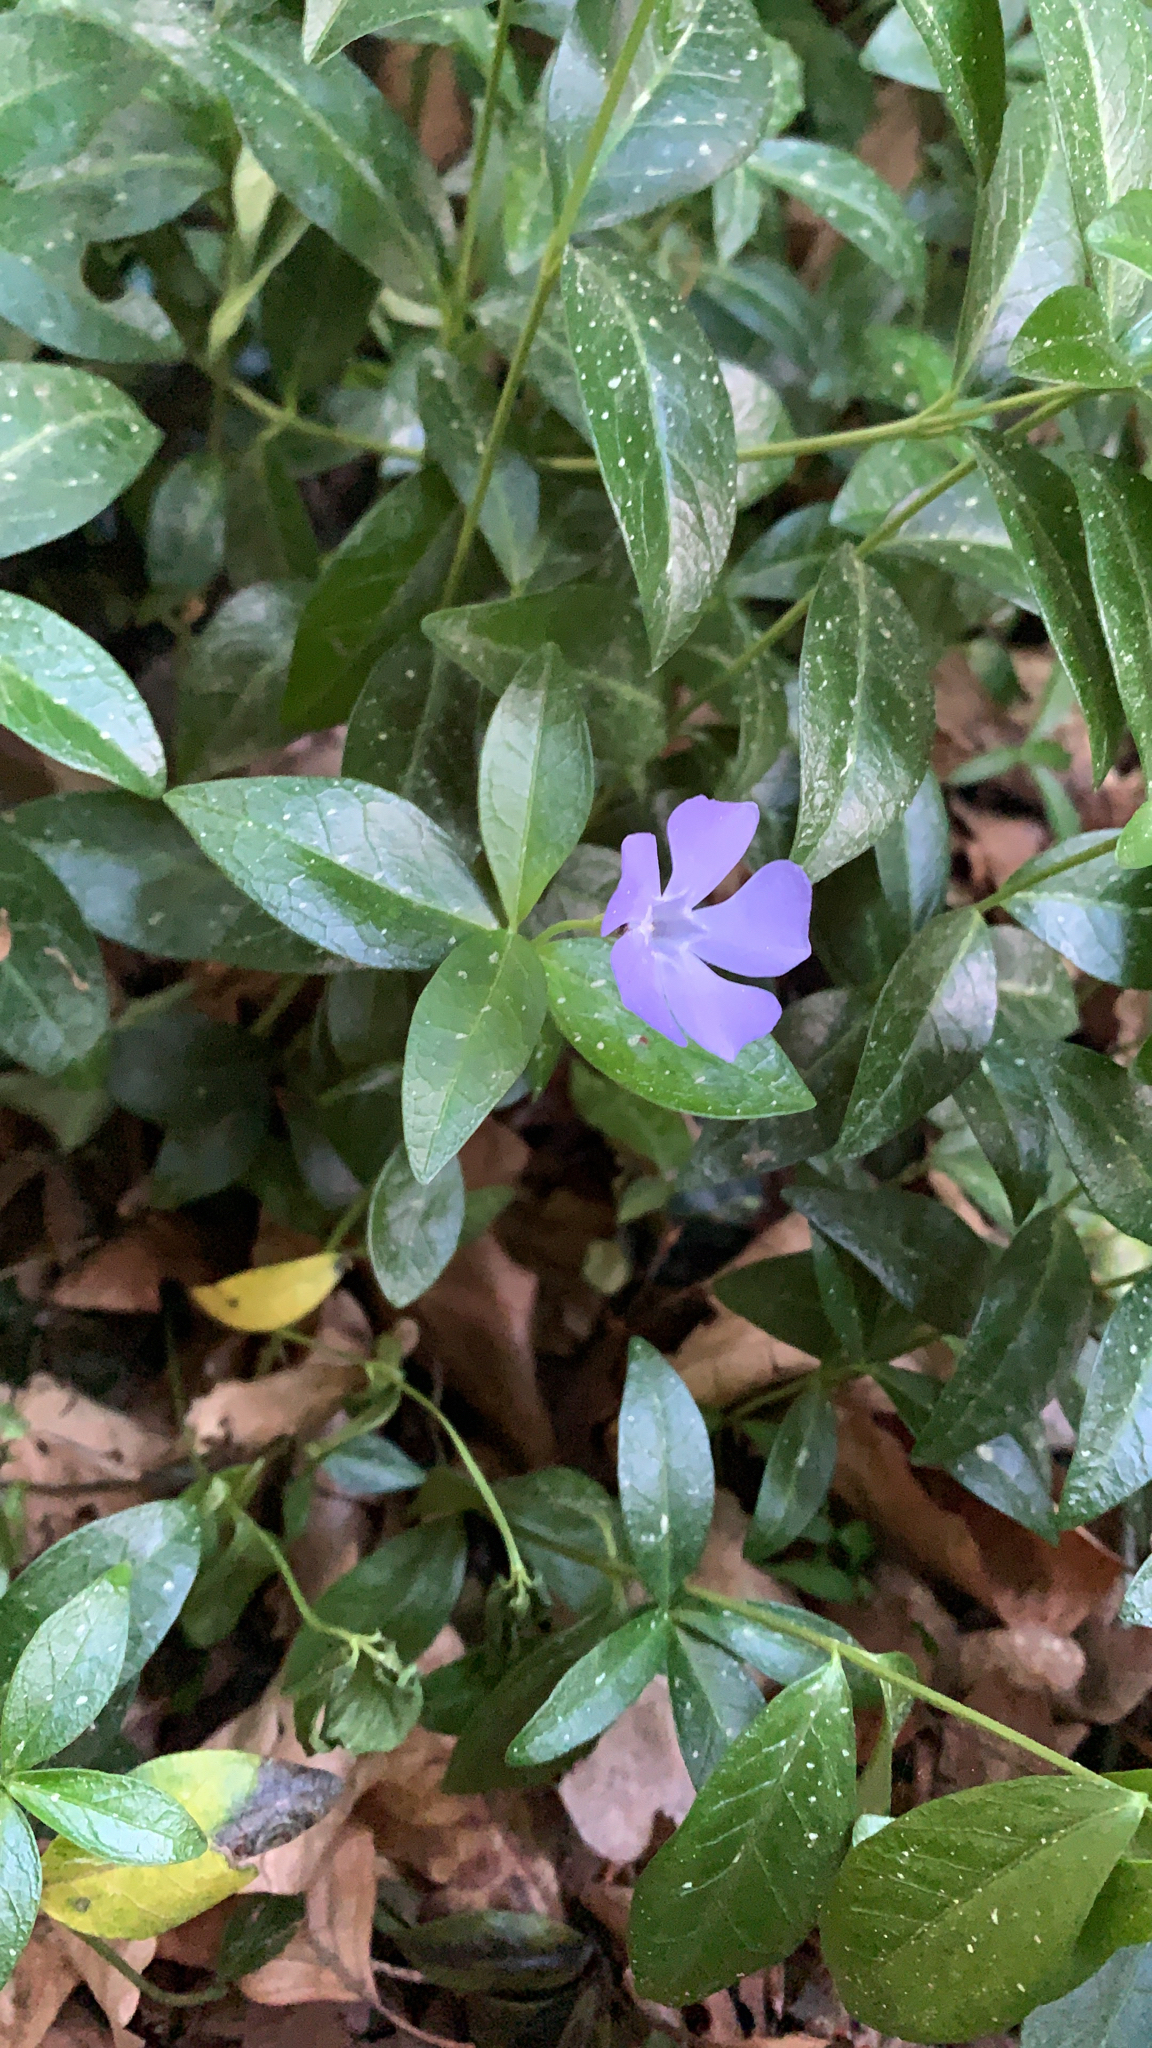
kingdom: Plantae
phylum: Tracheophyta
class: Magnoliopsida
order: Gentianales
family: Apocynaceae
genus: Vinca
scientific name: Vinca minor
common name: Lesser periwinkle
